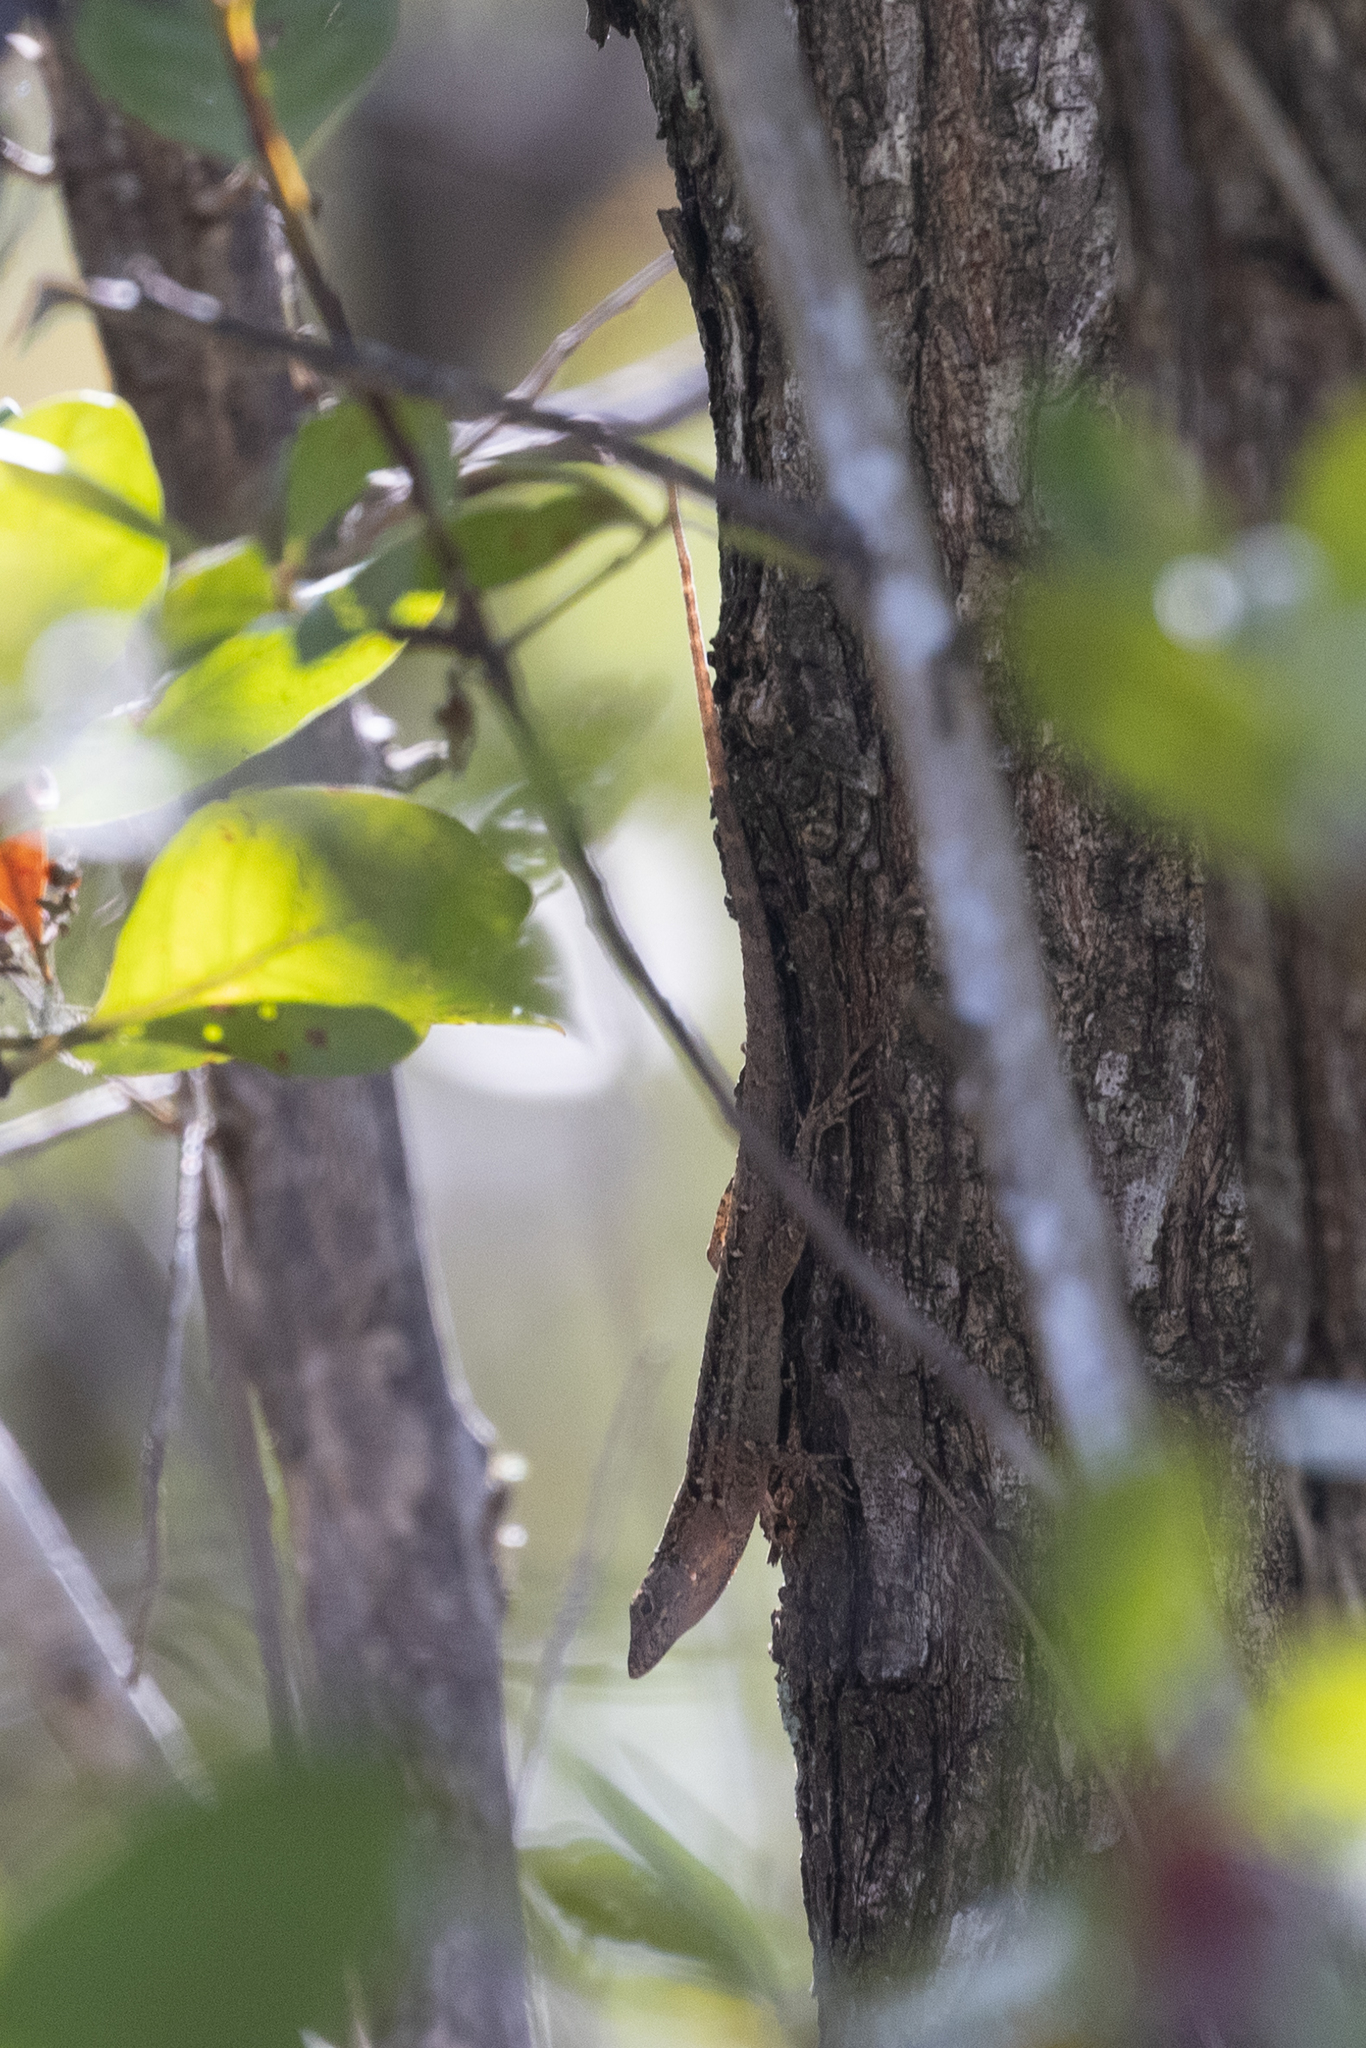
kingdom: Animalia
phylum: Chordata
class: Squamata
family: Dactyloidae
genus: Anolis
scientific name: Anolis sagrei
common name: Brown anole
